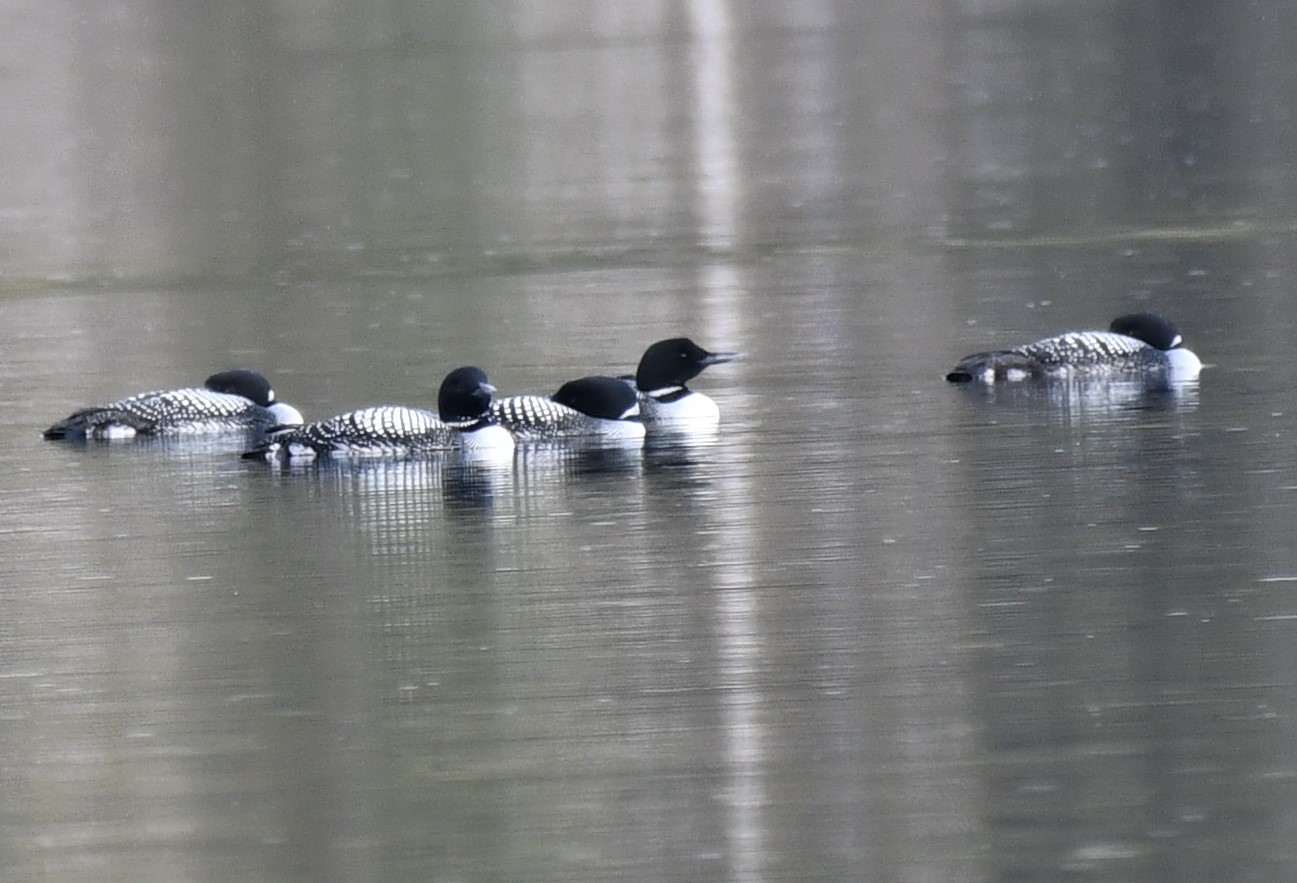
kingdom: Animalia
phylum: Chordata
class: Aves
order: Gaviiformes
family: Gaviidae
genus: Gavia
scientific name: Gavia immer
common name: Common loon
